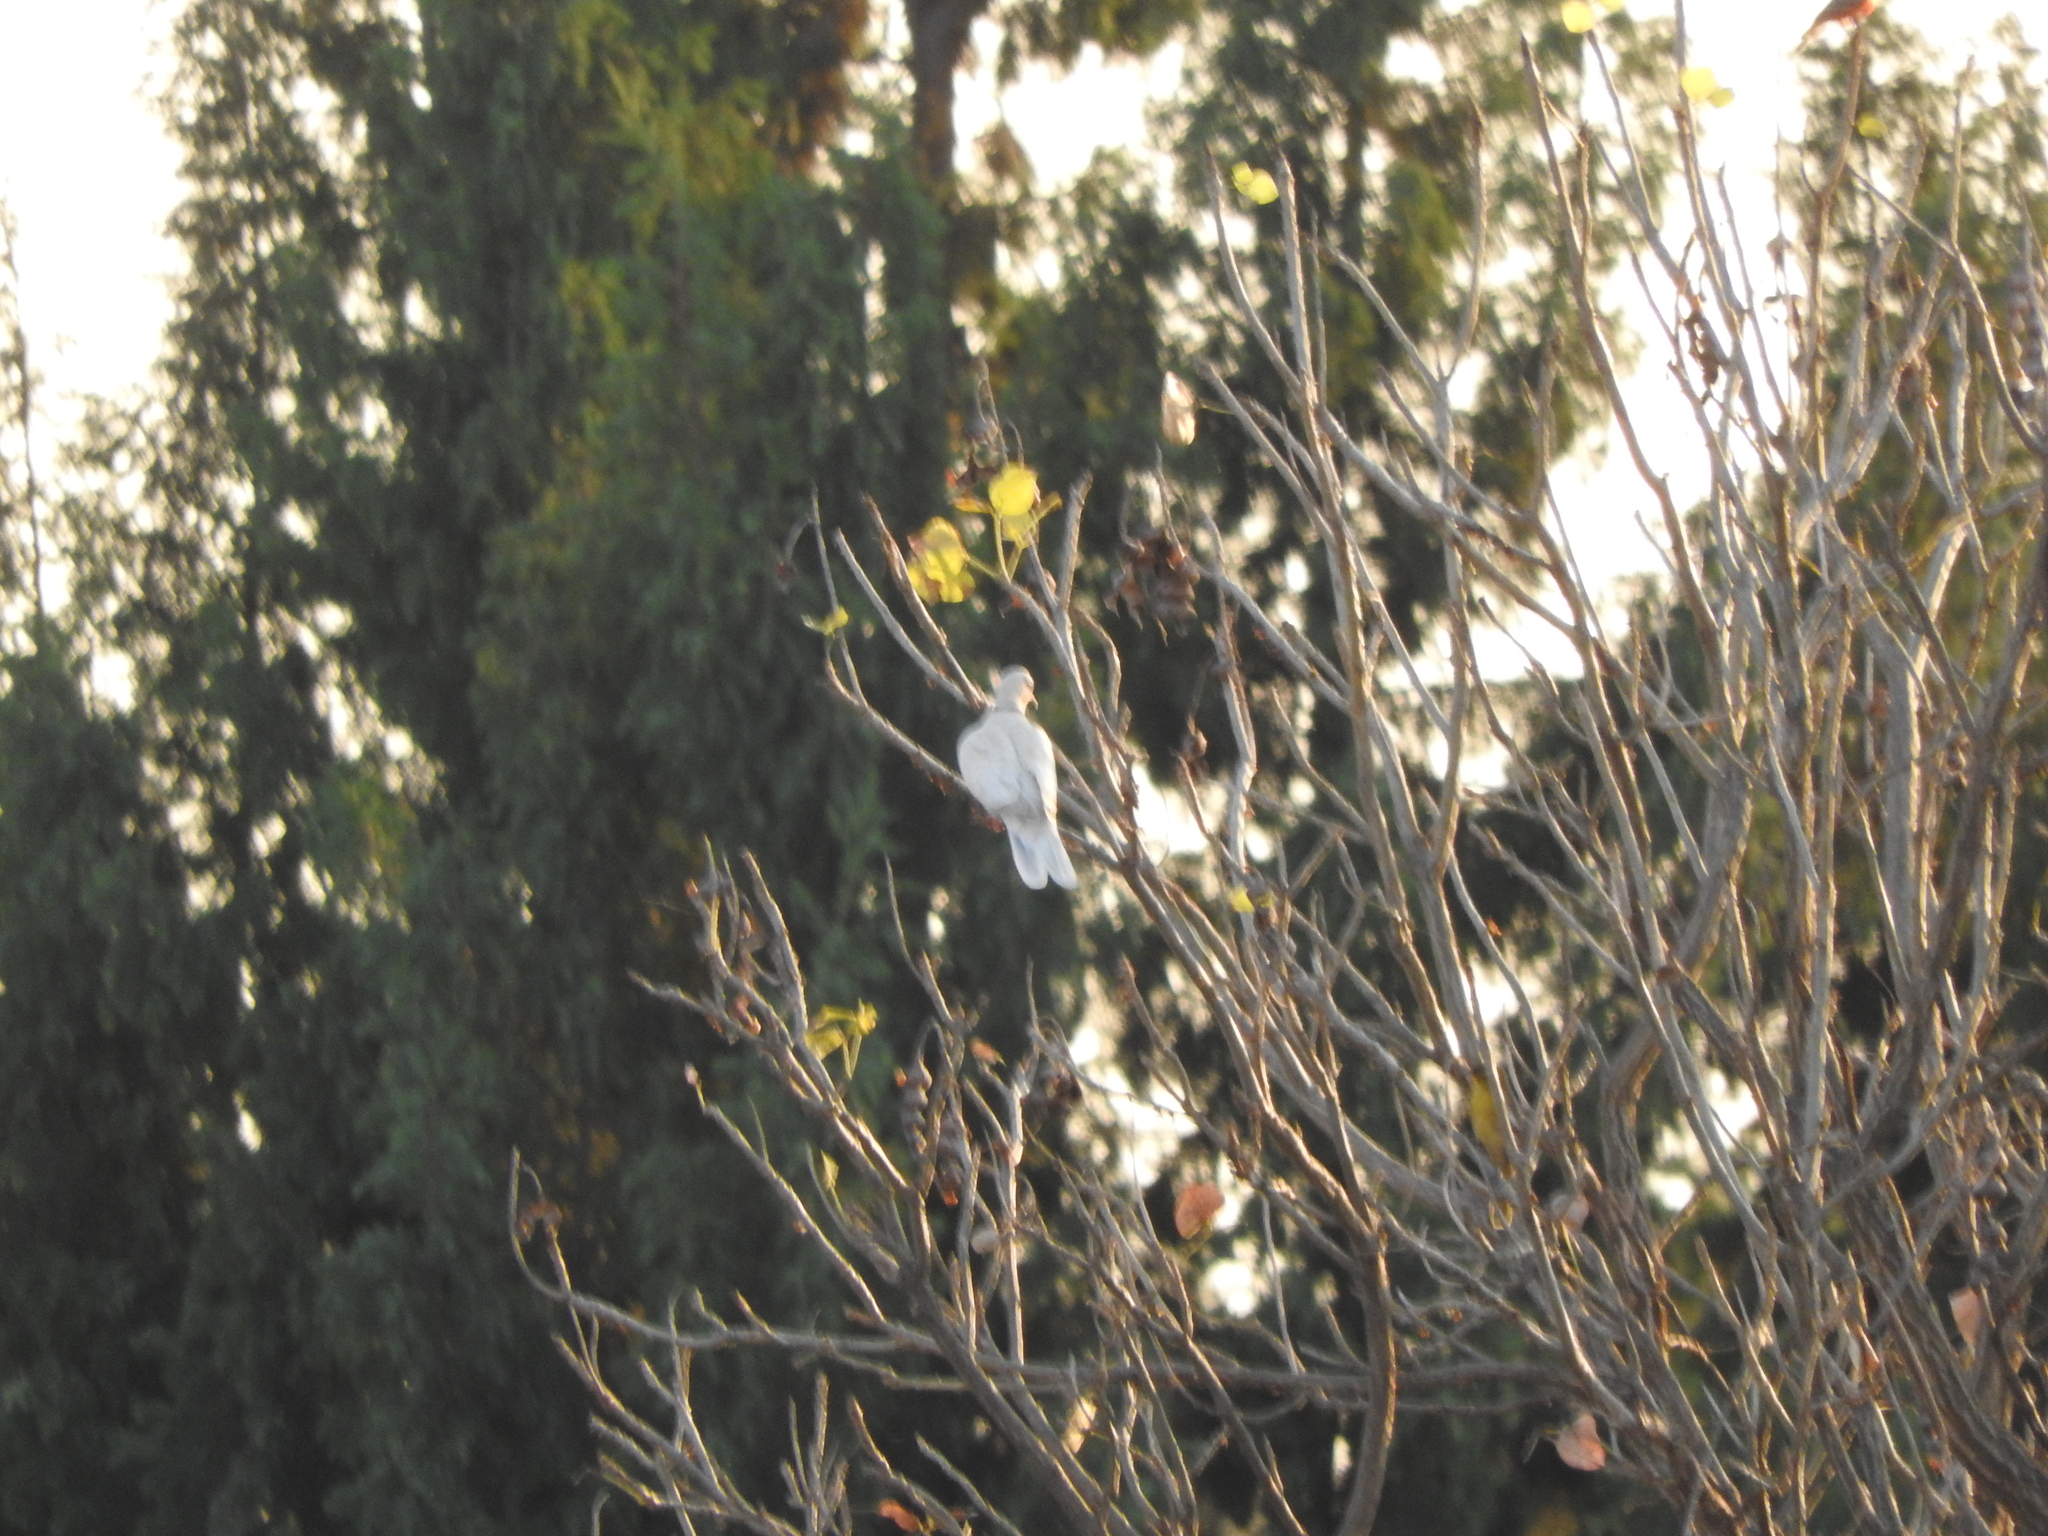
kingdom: Animalia
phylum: Chordata
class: Aves
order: Columbiformes
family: Columbidae
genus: Streptopelia
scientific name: Streptopelia decaocto
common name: Eurasian collared dove
